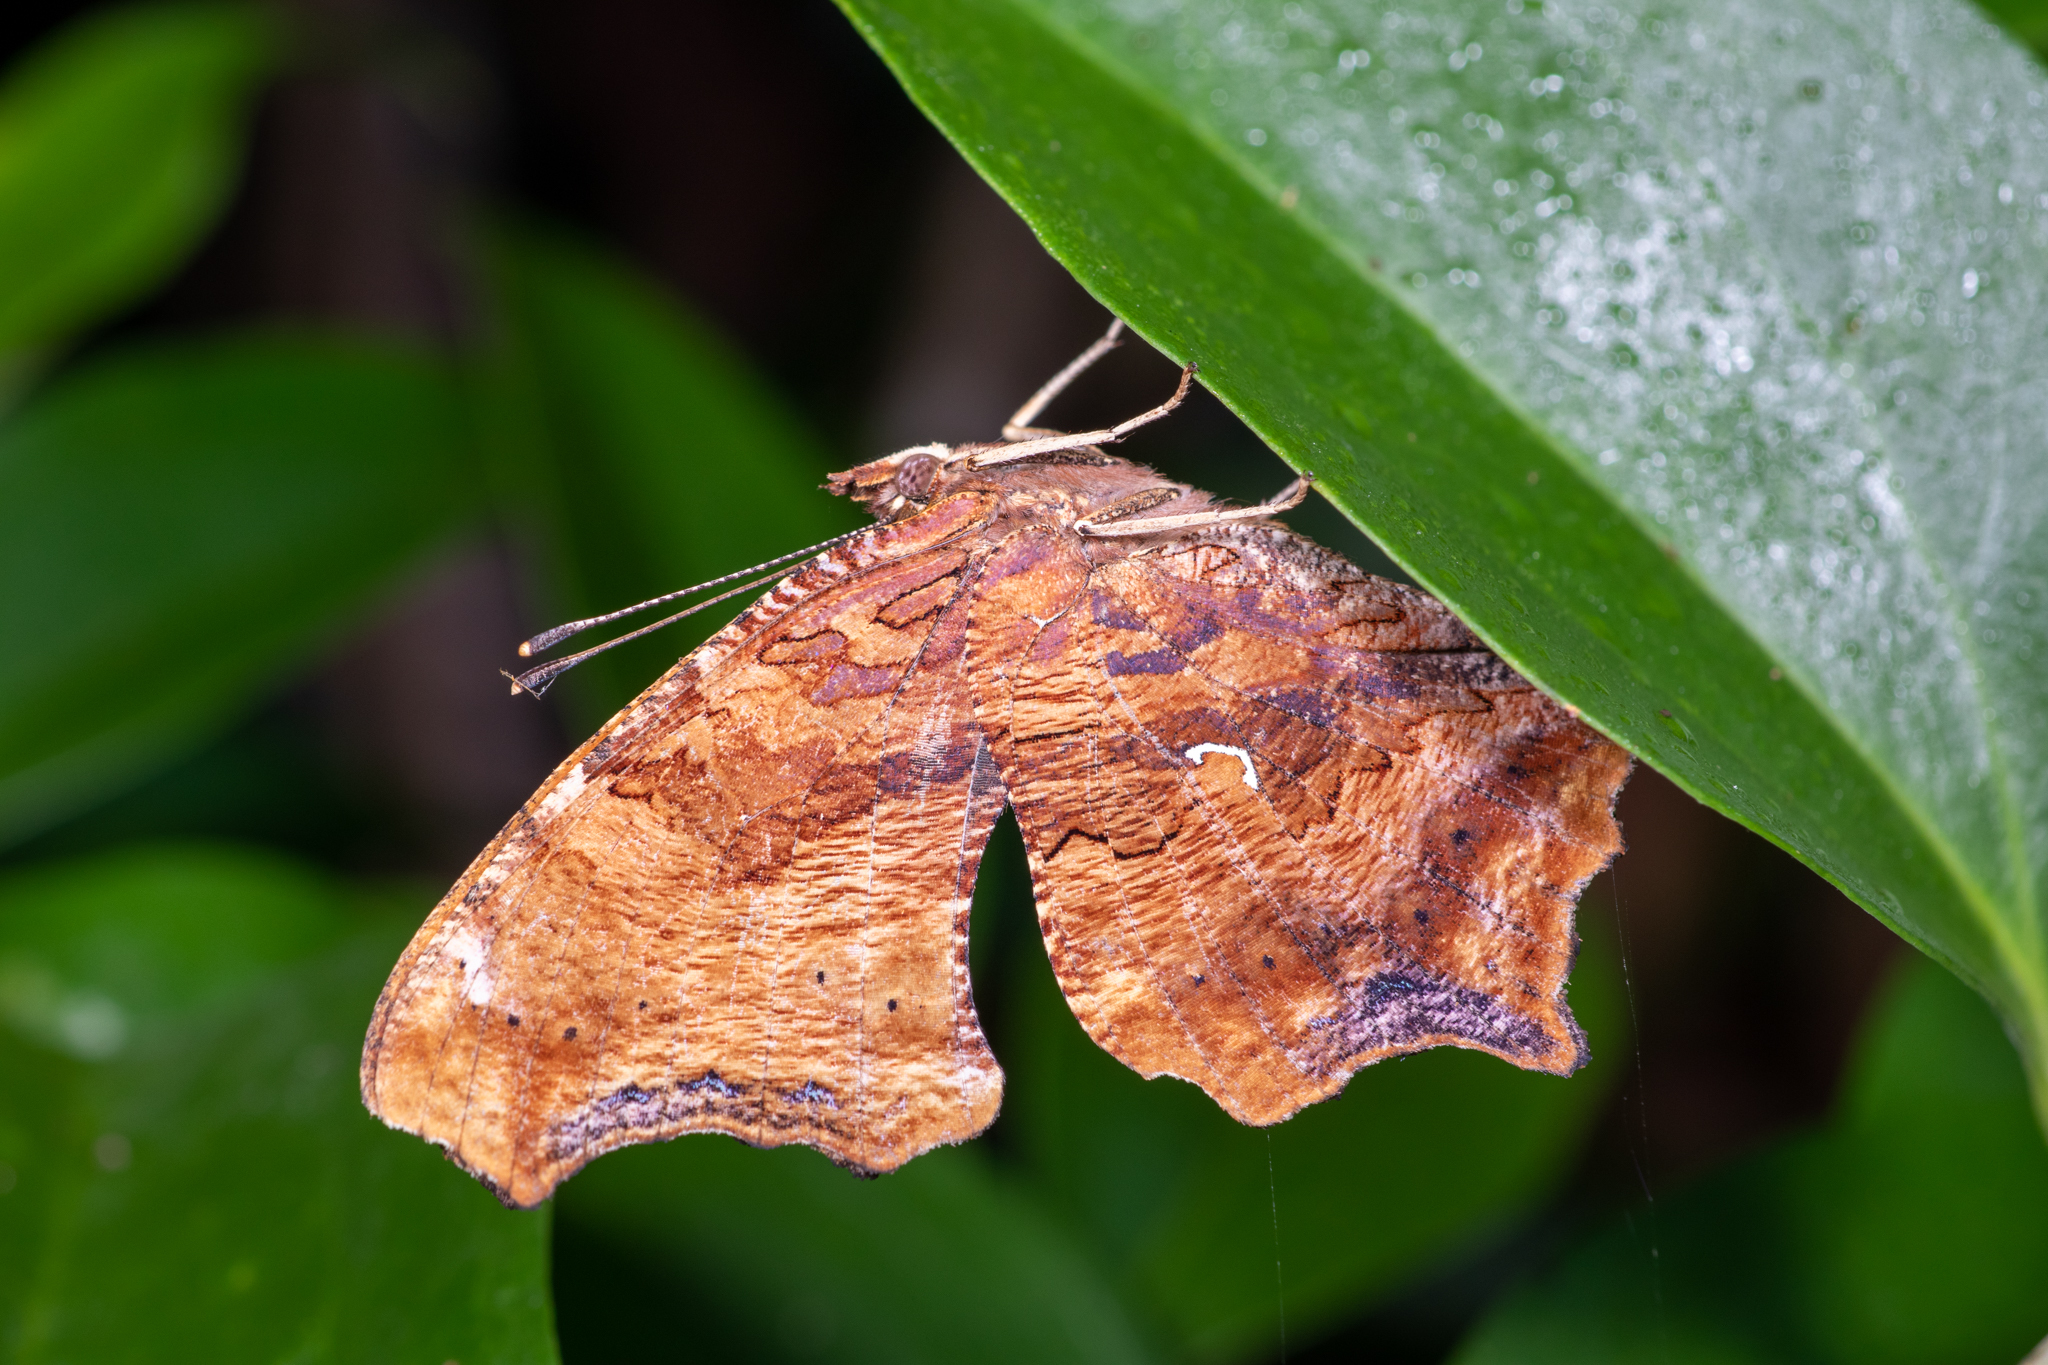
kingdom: Animalia
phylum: Arthropoda
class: Insecta
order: Lepidoptera
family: Nymphalidae
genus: Polygonia
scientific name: Polygonia comma
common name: Eastern comma
